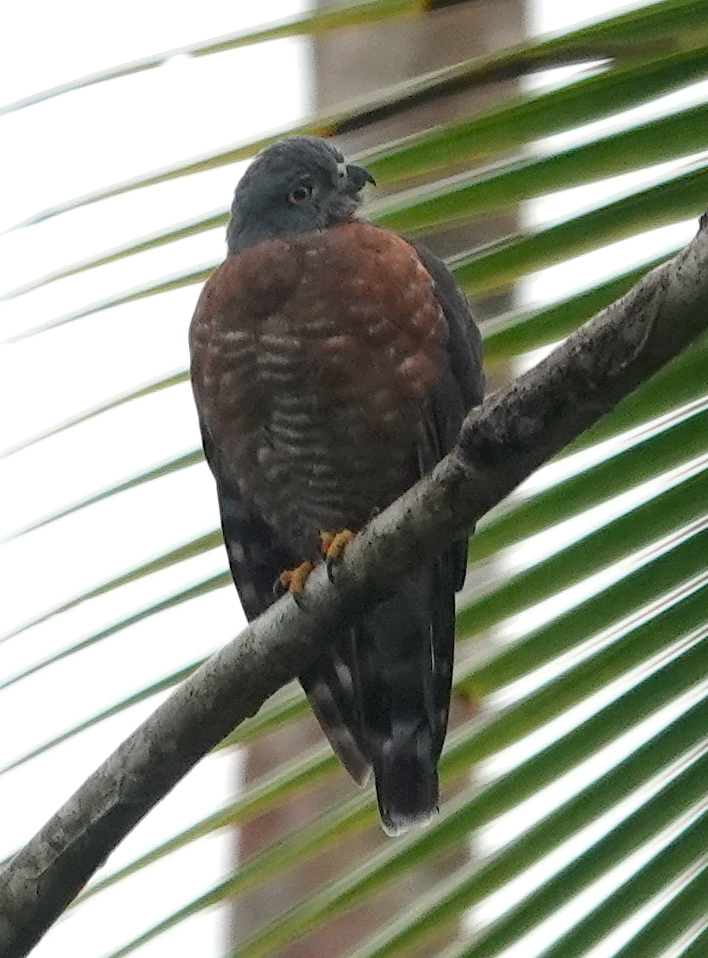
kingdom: Animalia
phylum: Chordata
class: Aves
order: Accipitriformes
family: Accipitridae
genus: Harpagus
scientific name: Harpagus bidentatus
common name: Double-toothed kite
